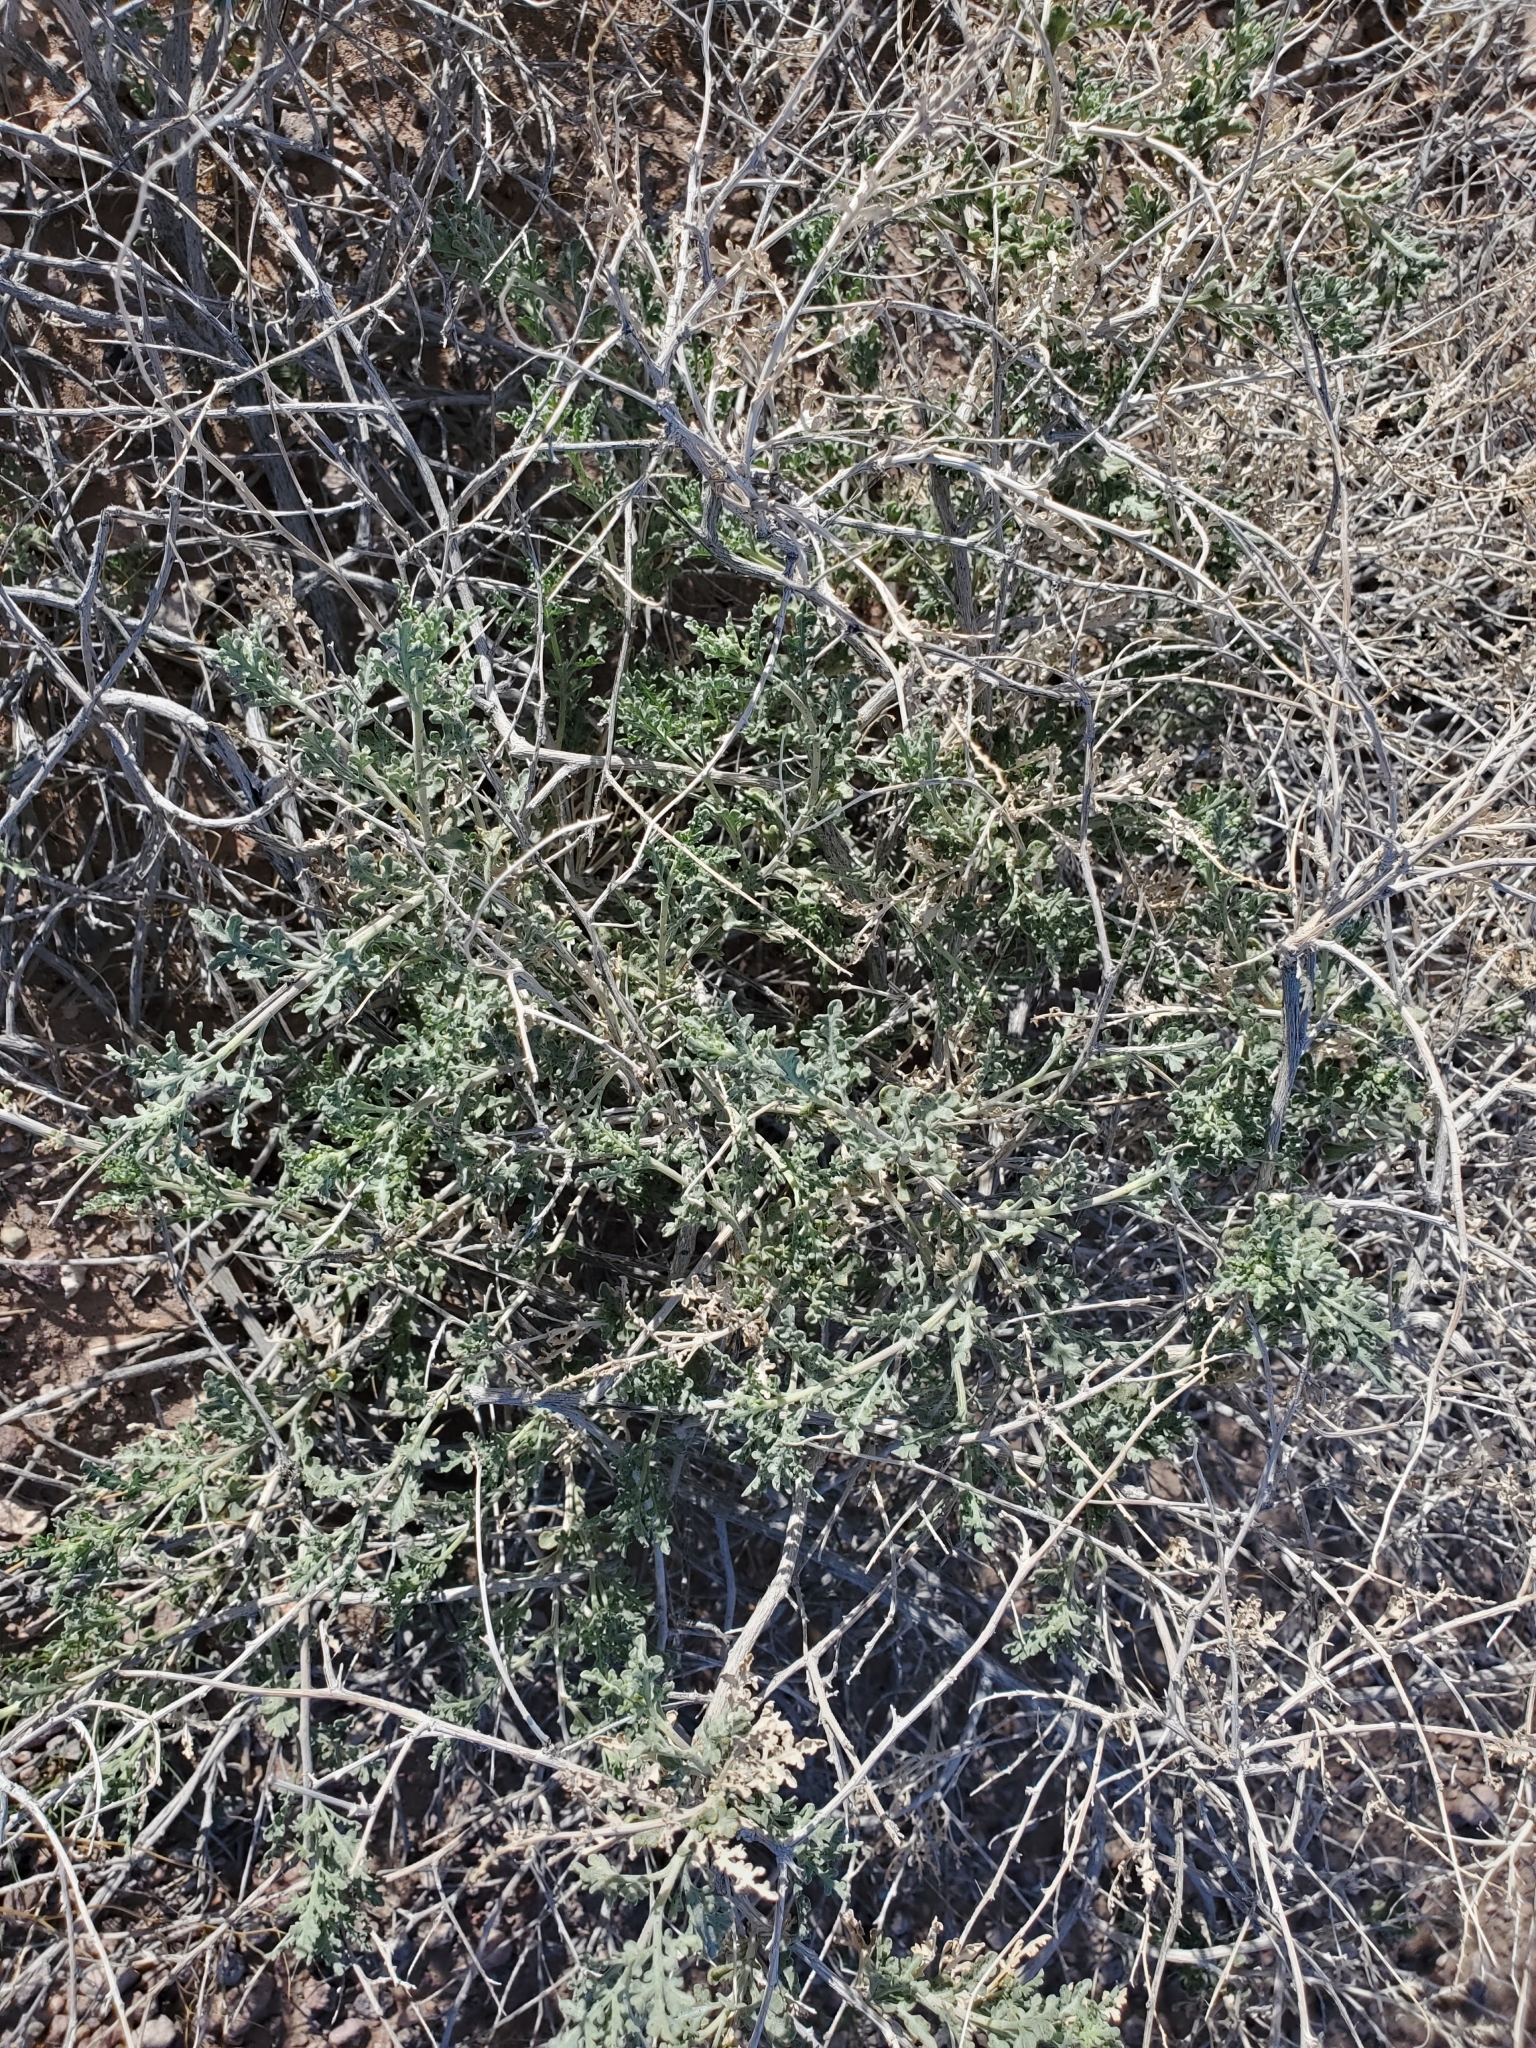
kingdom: Plantae
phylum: Tracheophyta
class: Magnoliopsida
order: Asterales
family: Asteraceae
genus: Ambrosia
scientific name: Ambrosia dumosa
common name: Bur-sage
